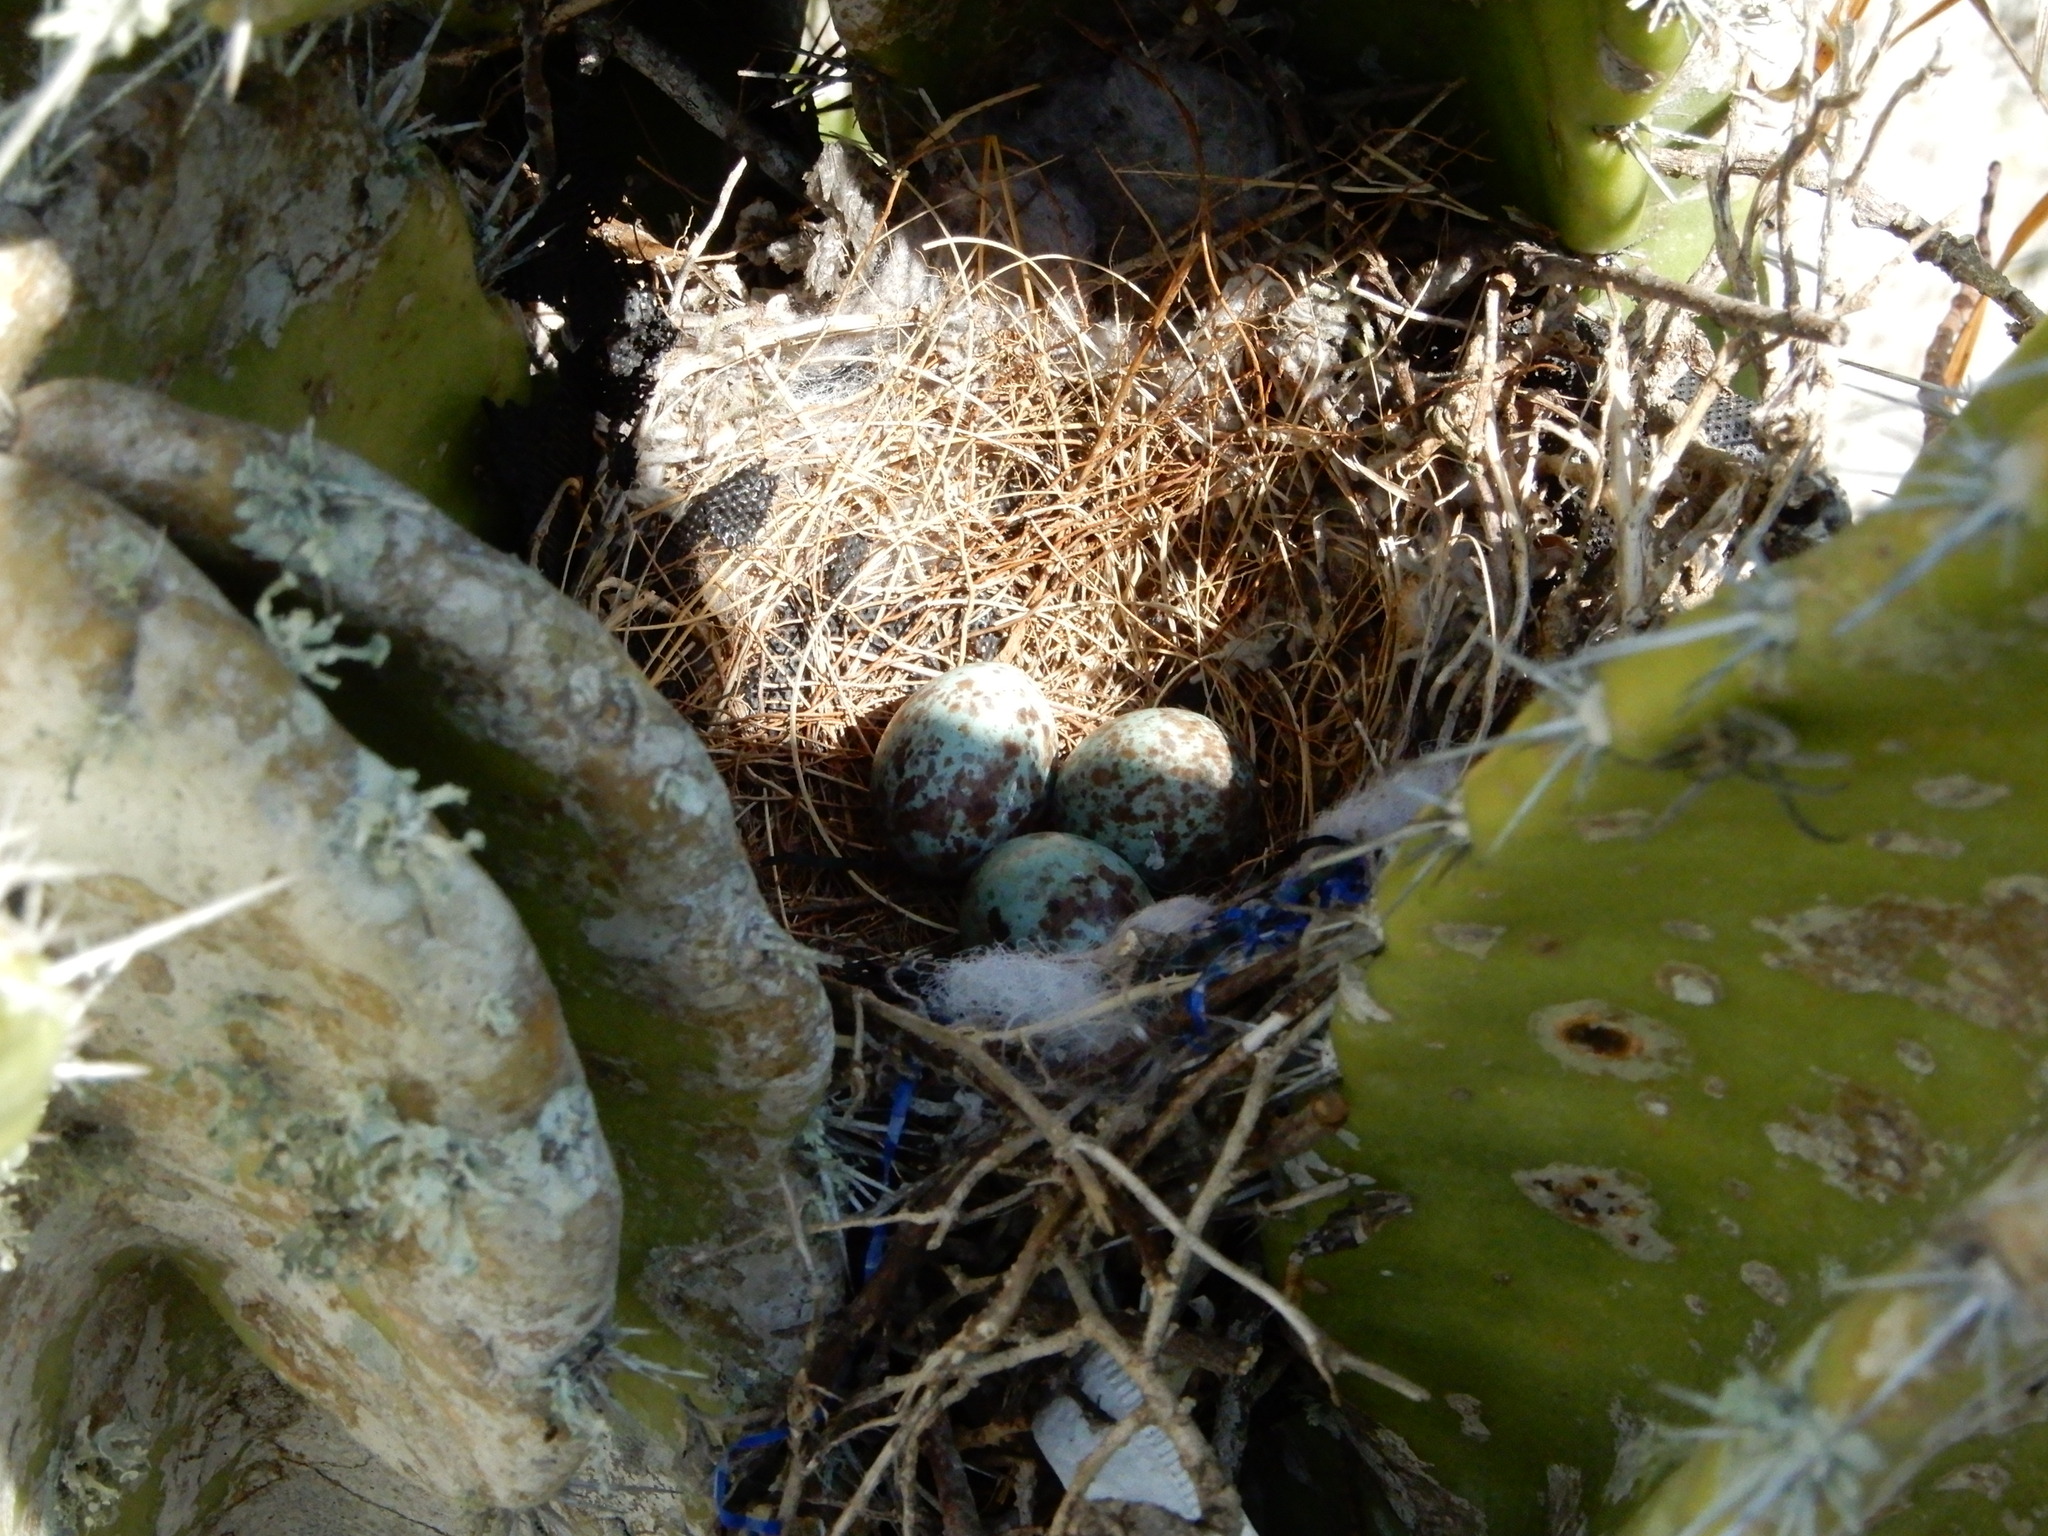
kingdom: Animalia
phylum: Chordata
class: Aves
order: Passeriformes
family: Mimidae
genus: Mimus
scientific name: Mimus polyglottos
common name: Northern mockingbird
